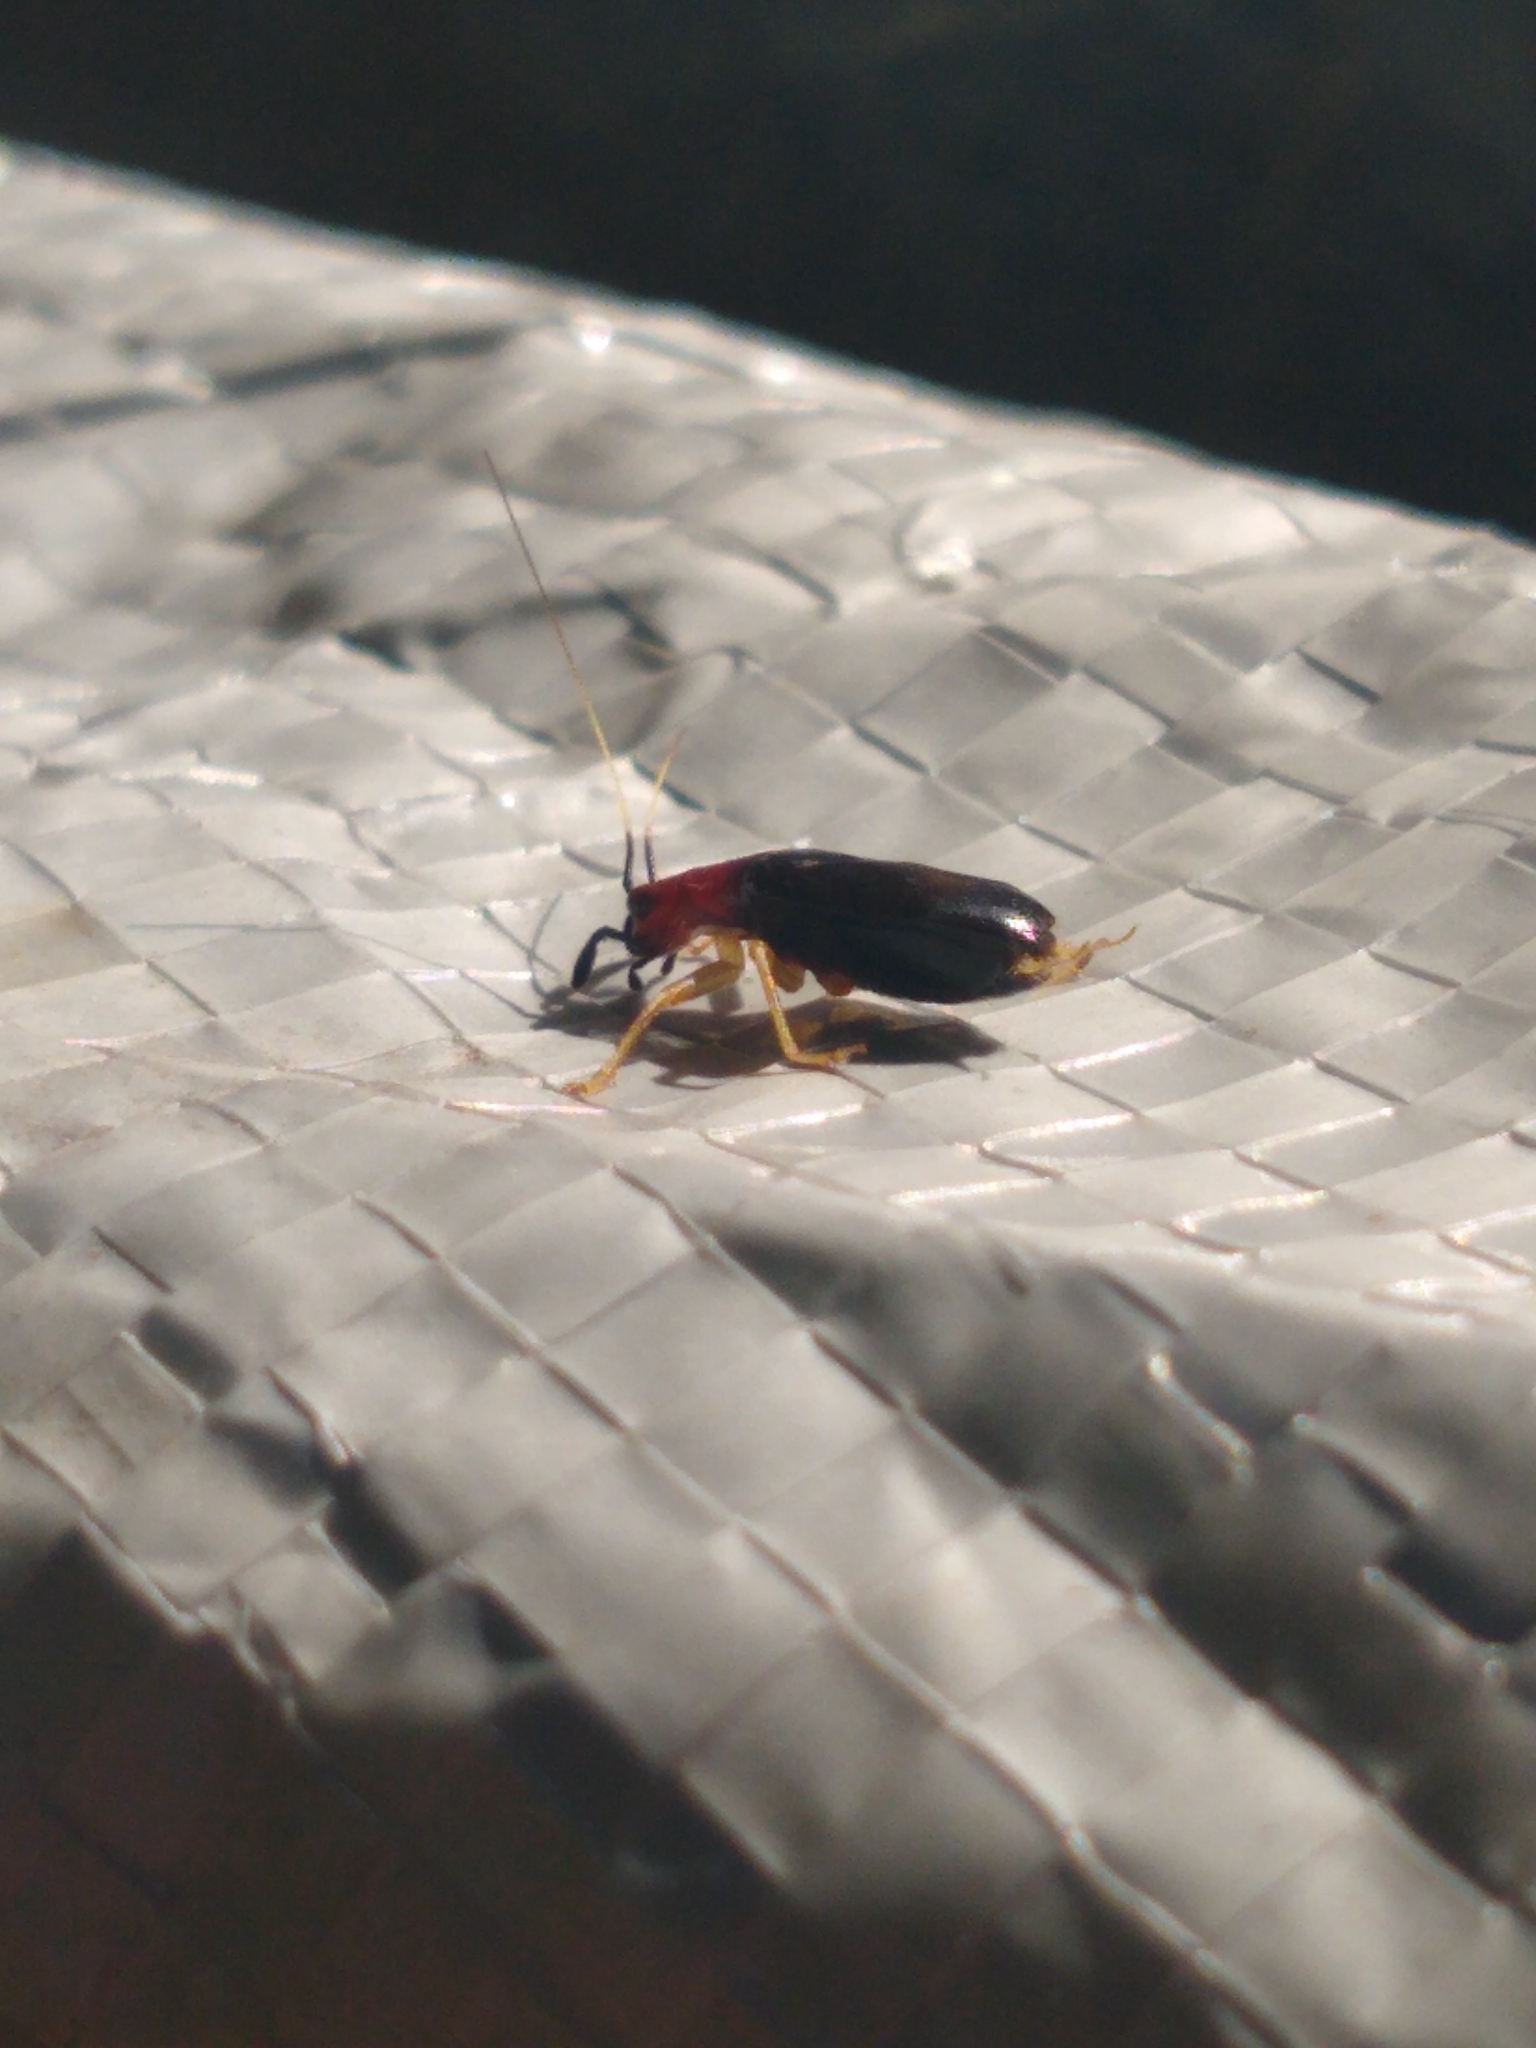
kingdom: Animalia
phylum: Arthropoda
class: Insecta
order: Orthoptera
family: Trigonidiidae
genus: Phyllopalpus
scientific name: Phyllopalpus pulchellus
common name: Handsome trig
